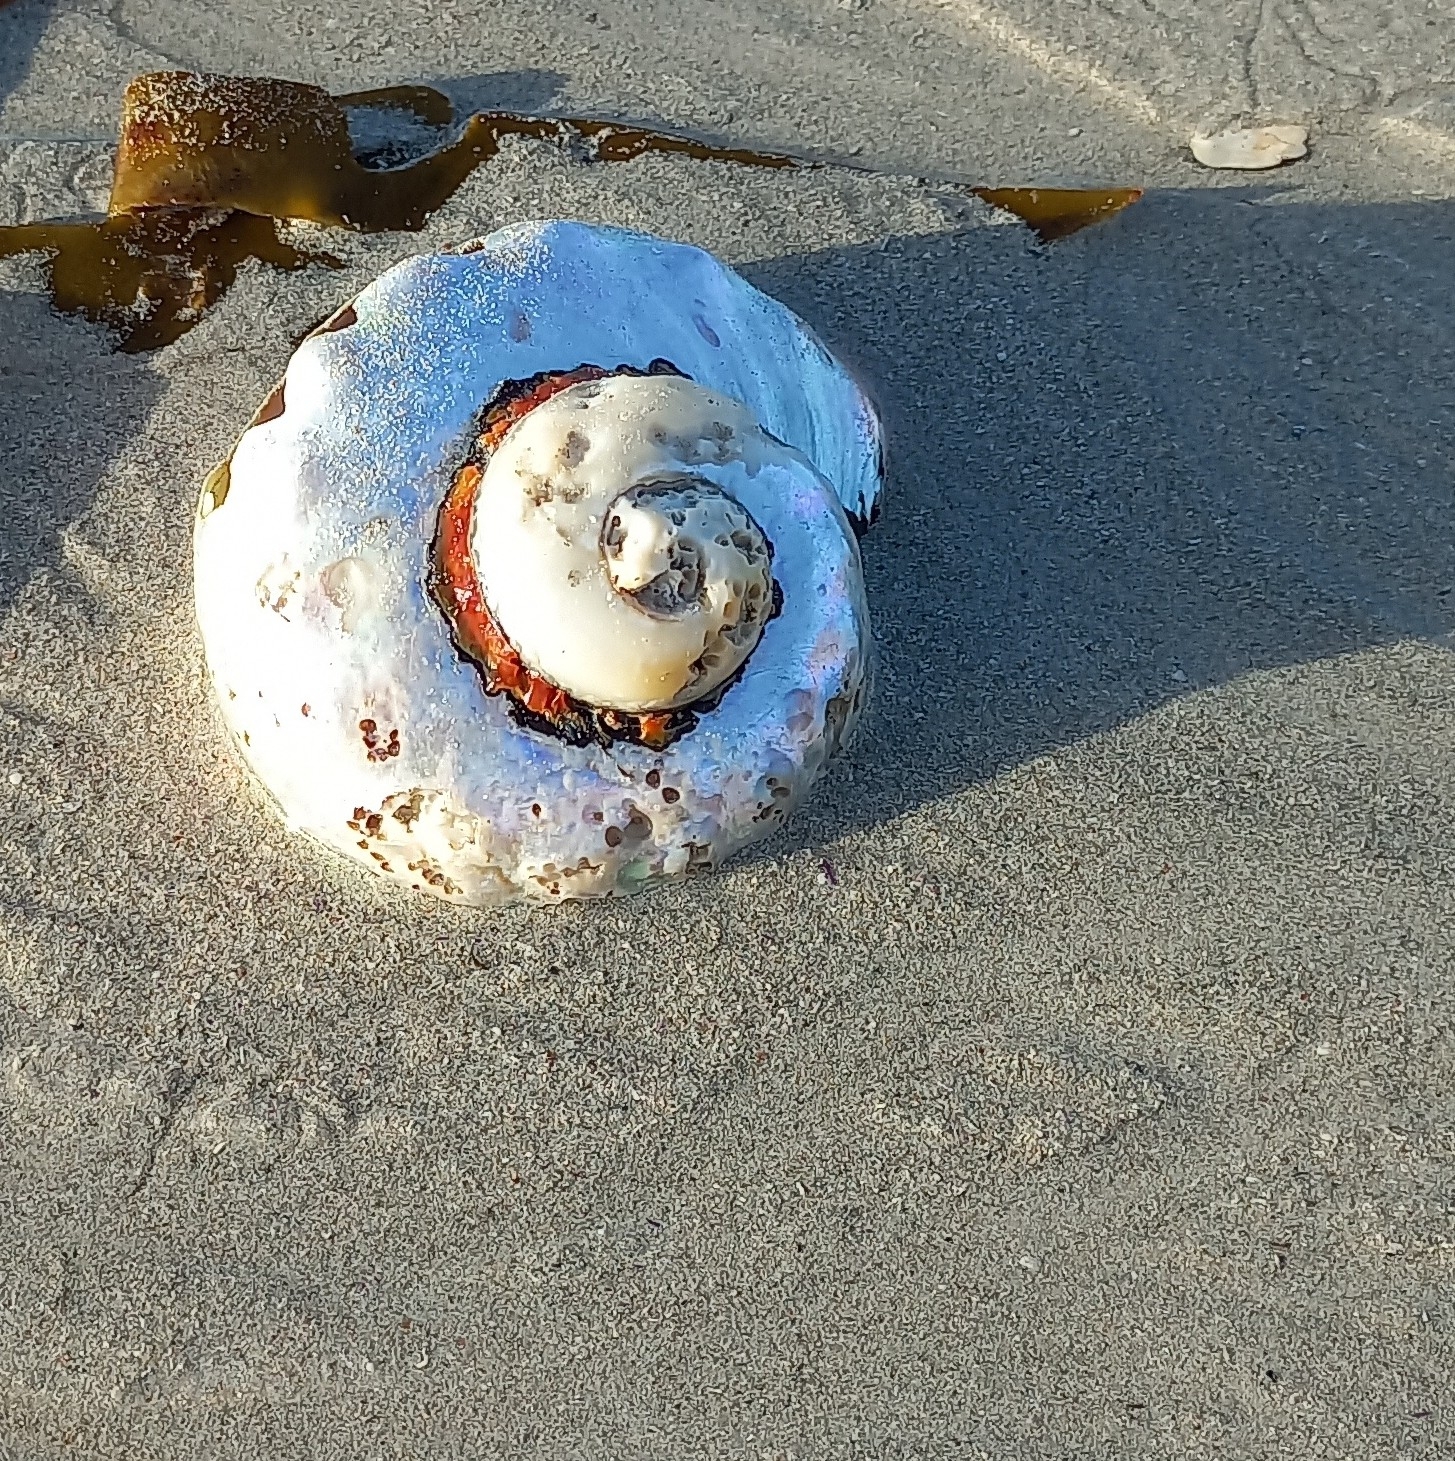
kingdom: Animalia
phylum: Mollusca
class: Gastropoda
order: Trochida
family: Turbinidae
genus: Turbo
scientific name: Turbo sarmaticus
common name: South african turban
